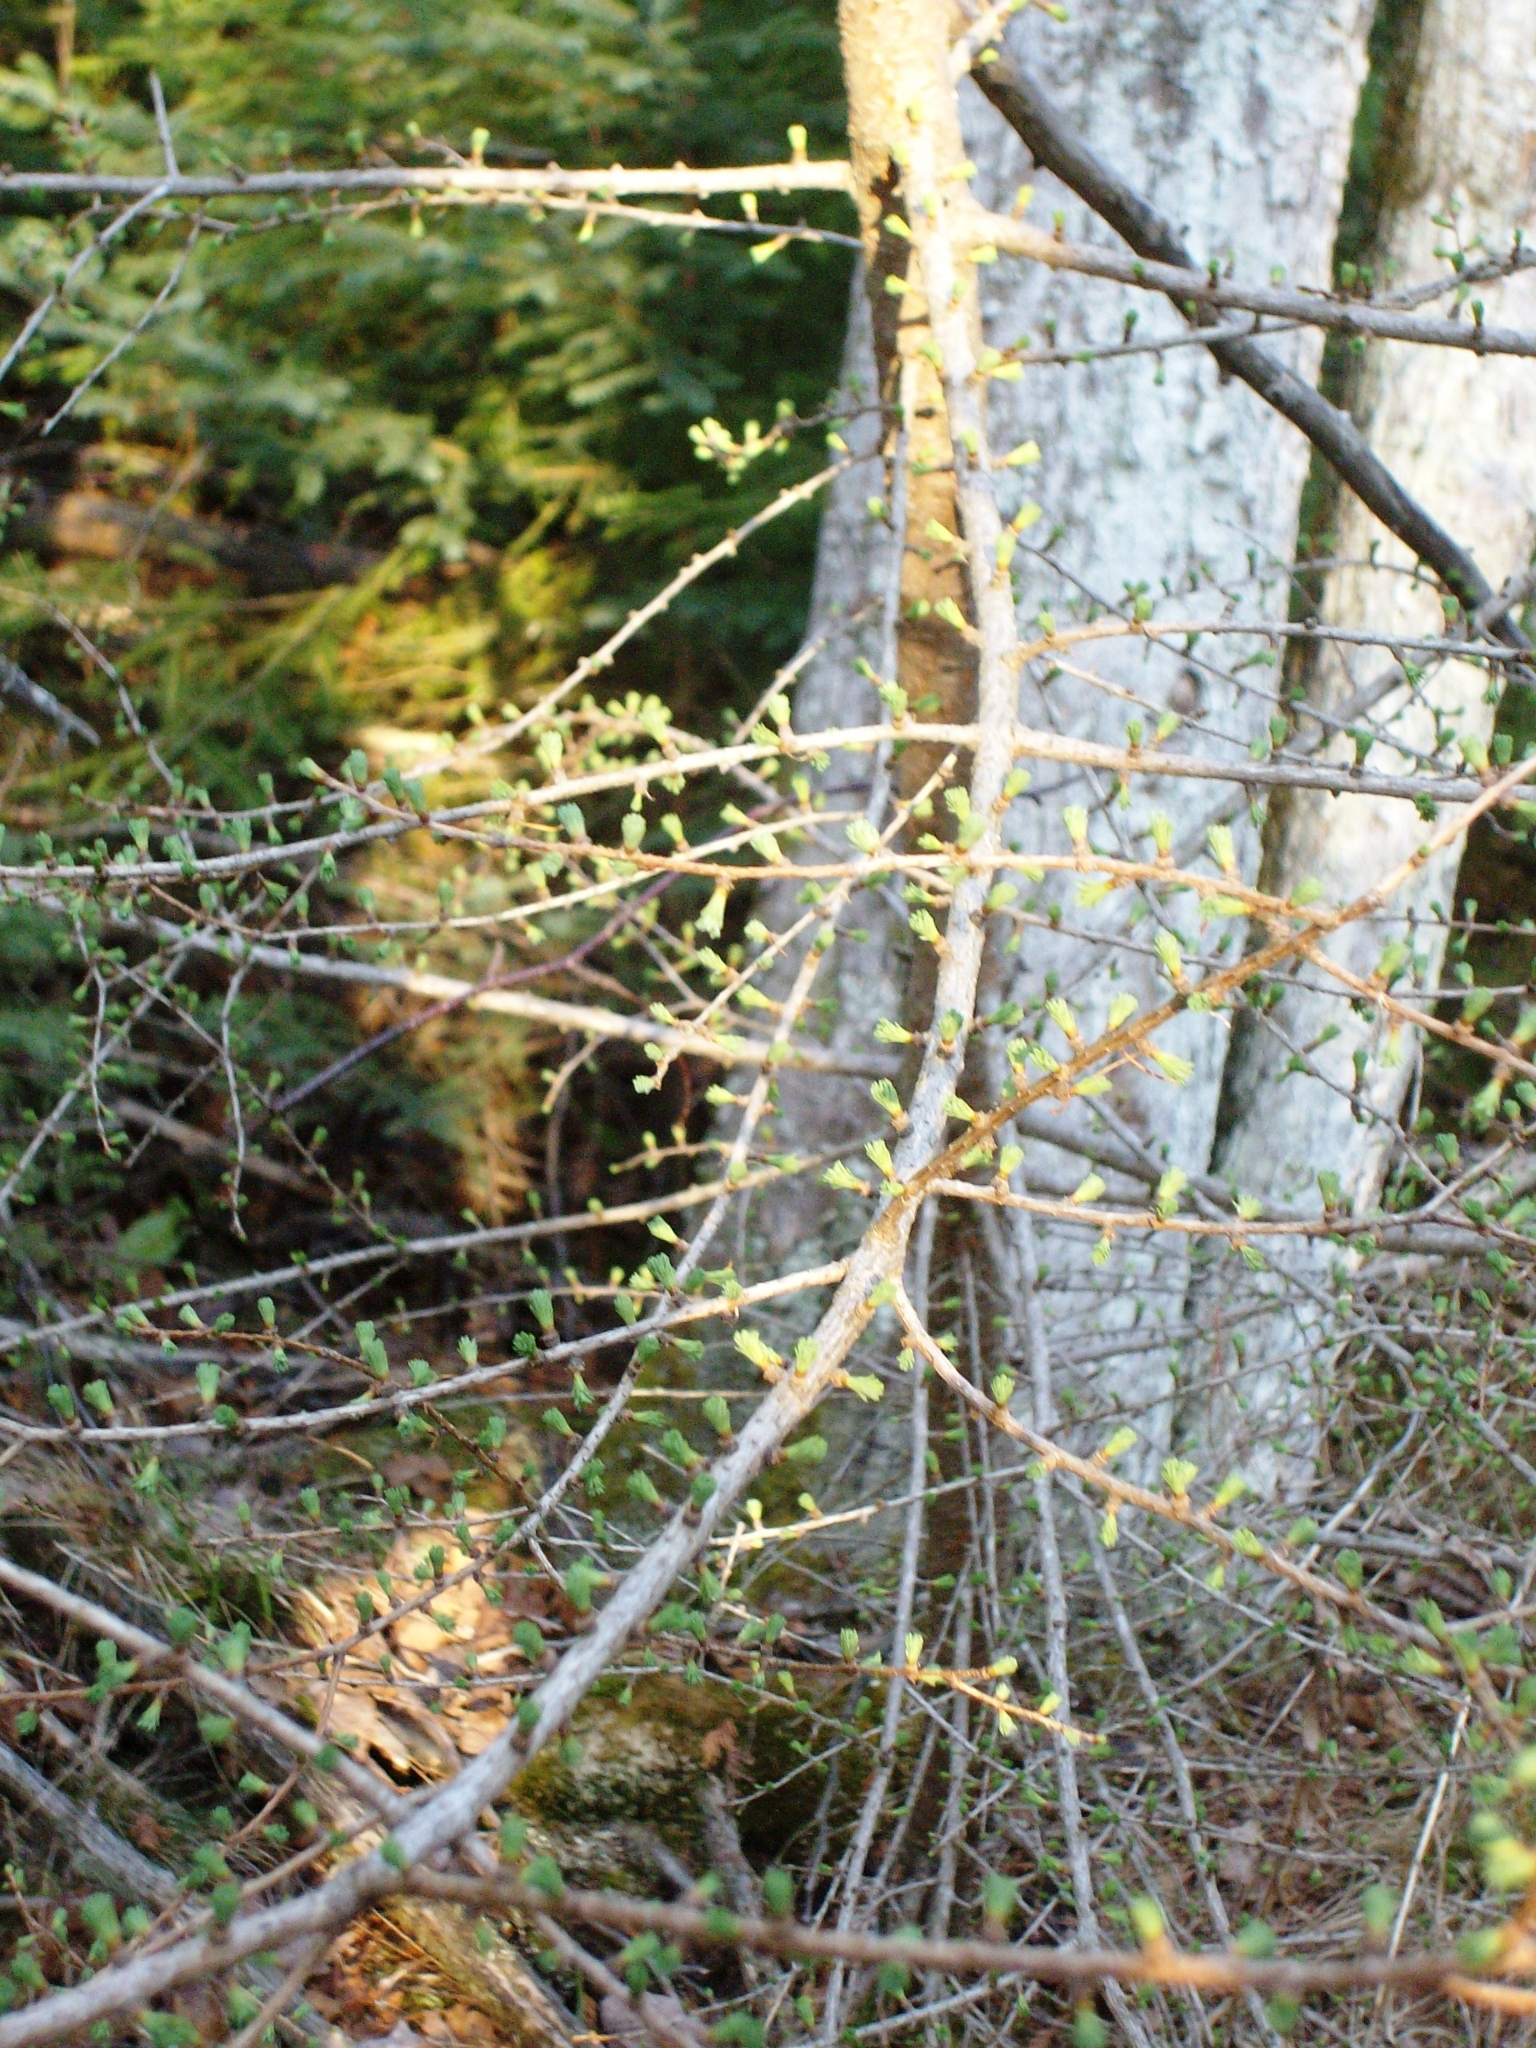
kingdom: Plantae
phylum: Tracheophyta
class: Pinopsida
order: Pinales
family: Pinaceae
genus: Larix
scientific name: Larix laricina
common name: American larch
